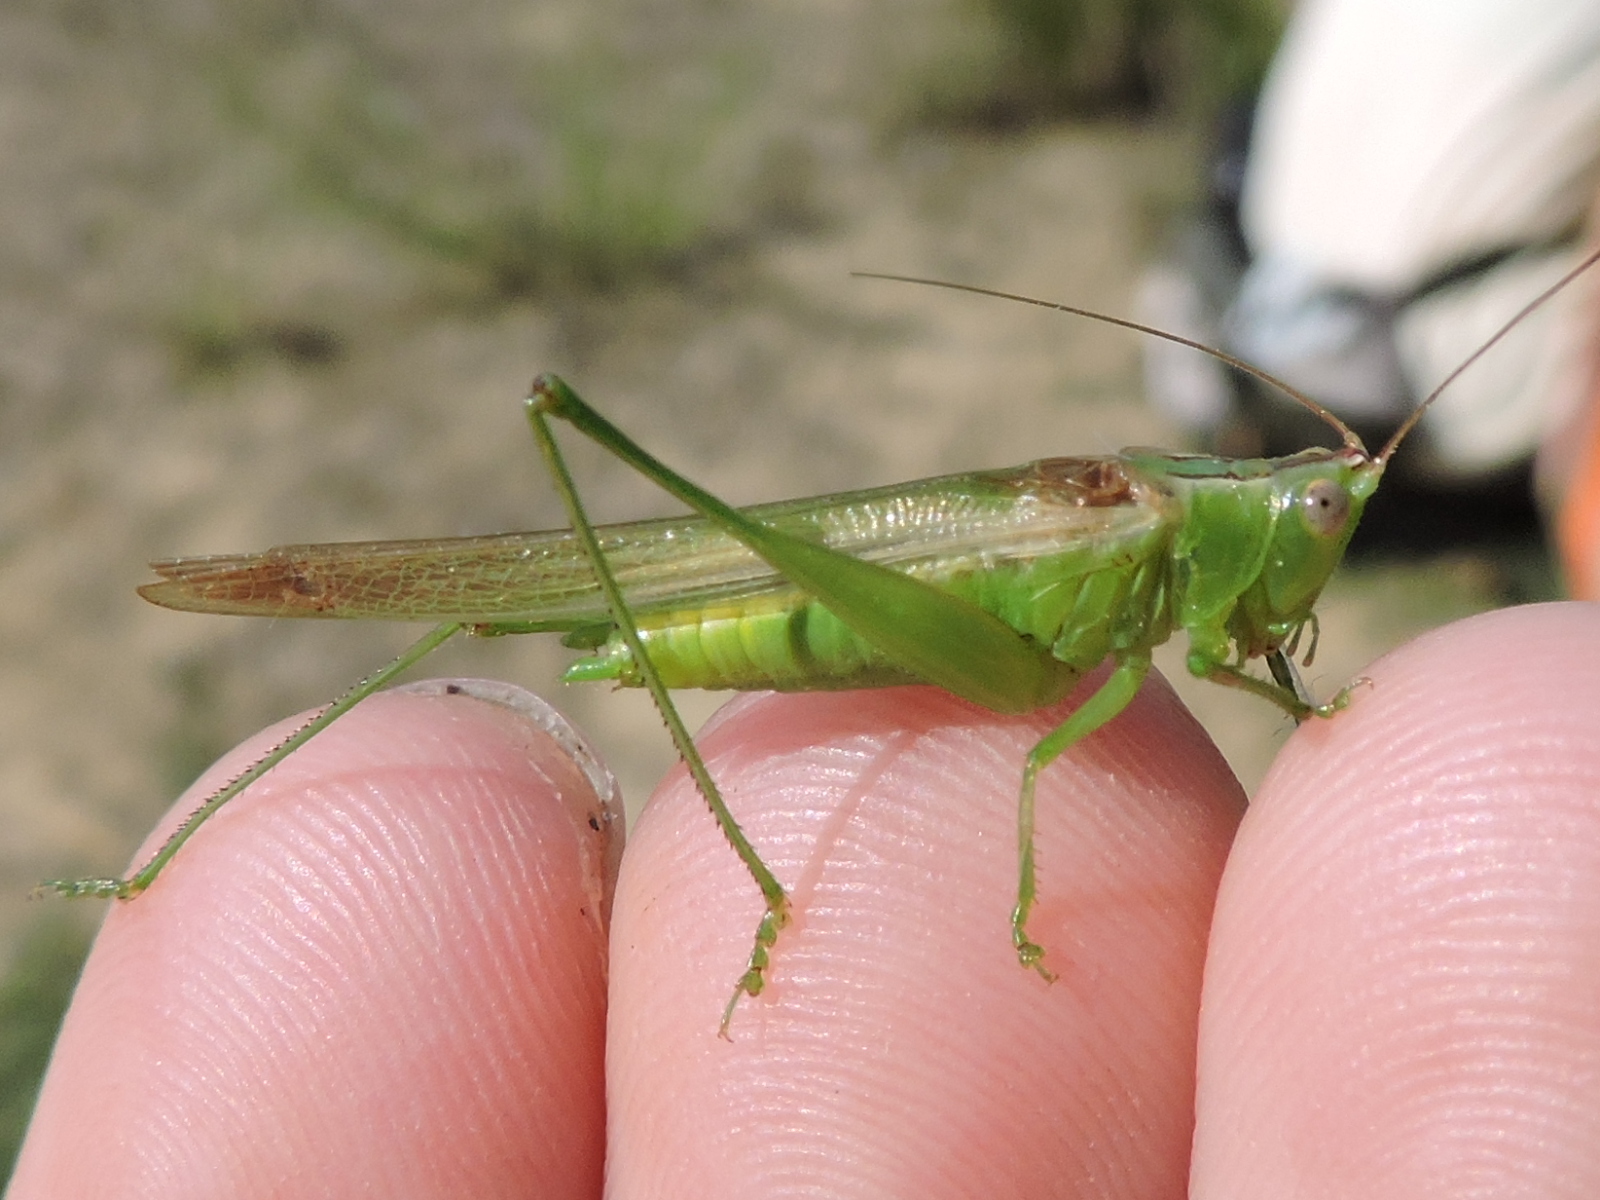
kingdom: Animalia
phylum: Arthropoda
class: Insecta
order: Orthoptera
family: Tettigoniidae
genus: Conocephalus
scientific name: Conocephalus fasciatus
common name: Slender meadow katydid
